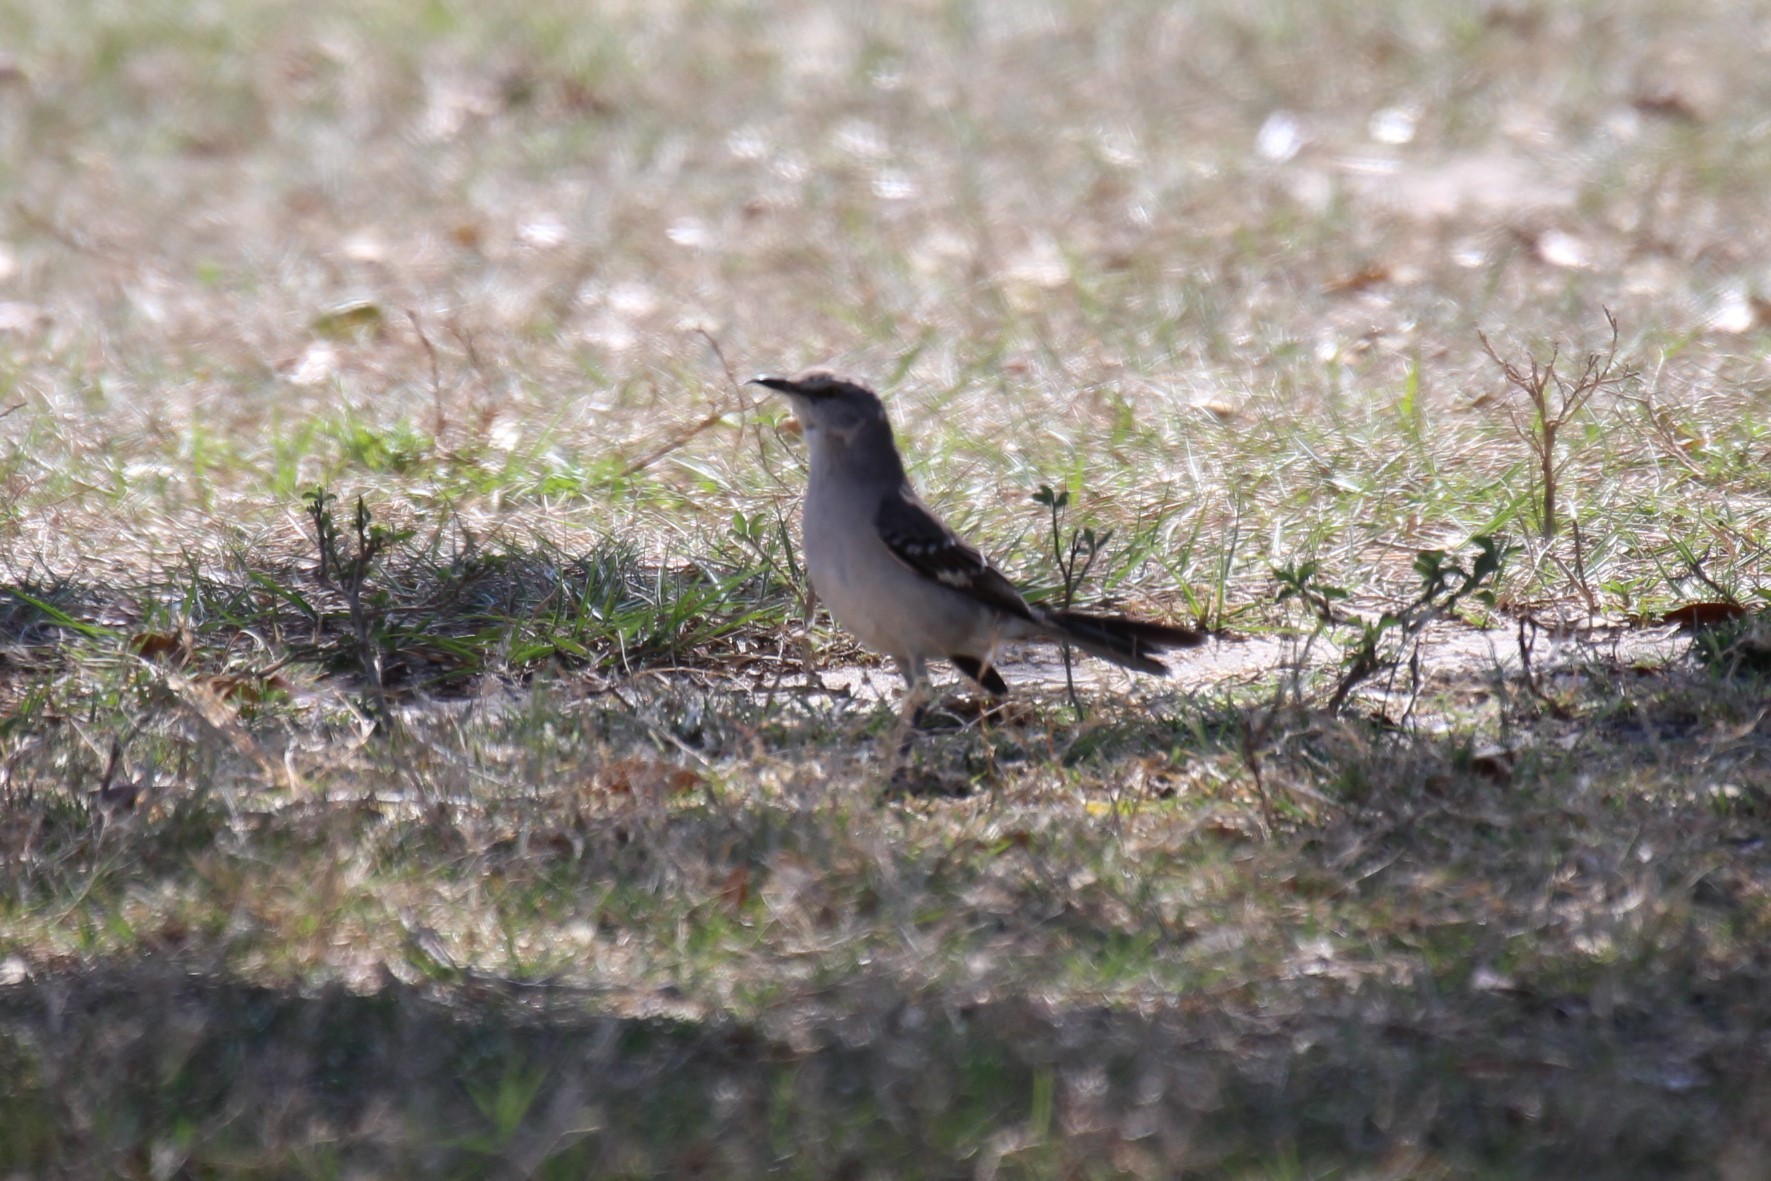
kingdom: Animalia
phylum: Chordata
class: Aves
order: Passeriformes
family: Mimidae
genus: Mimus
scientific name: Mimus polyglottos
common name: Northern mockingbird
